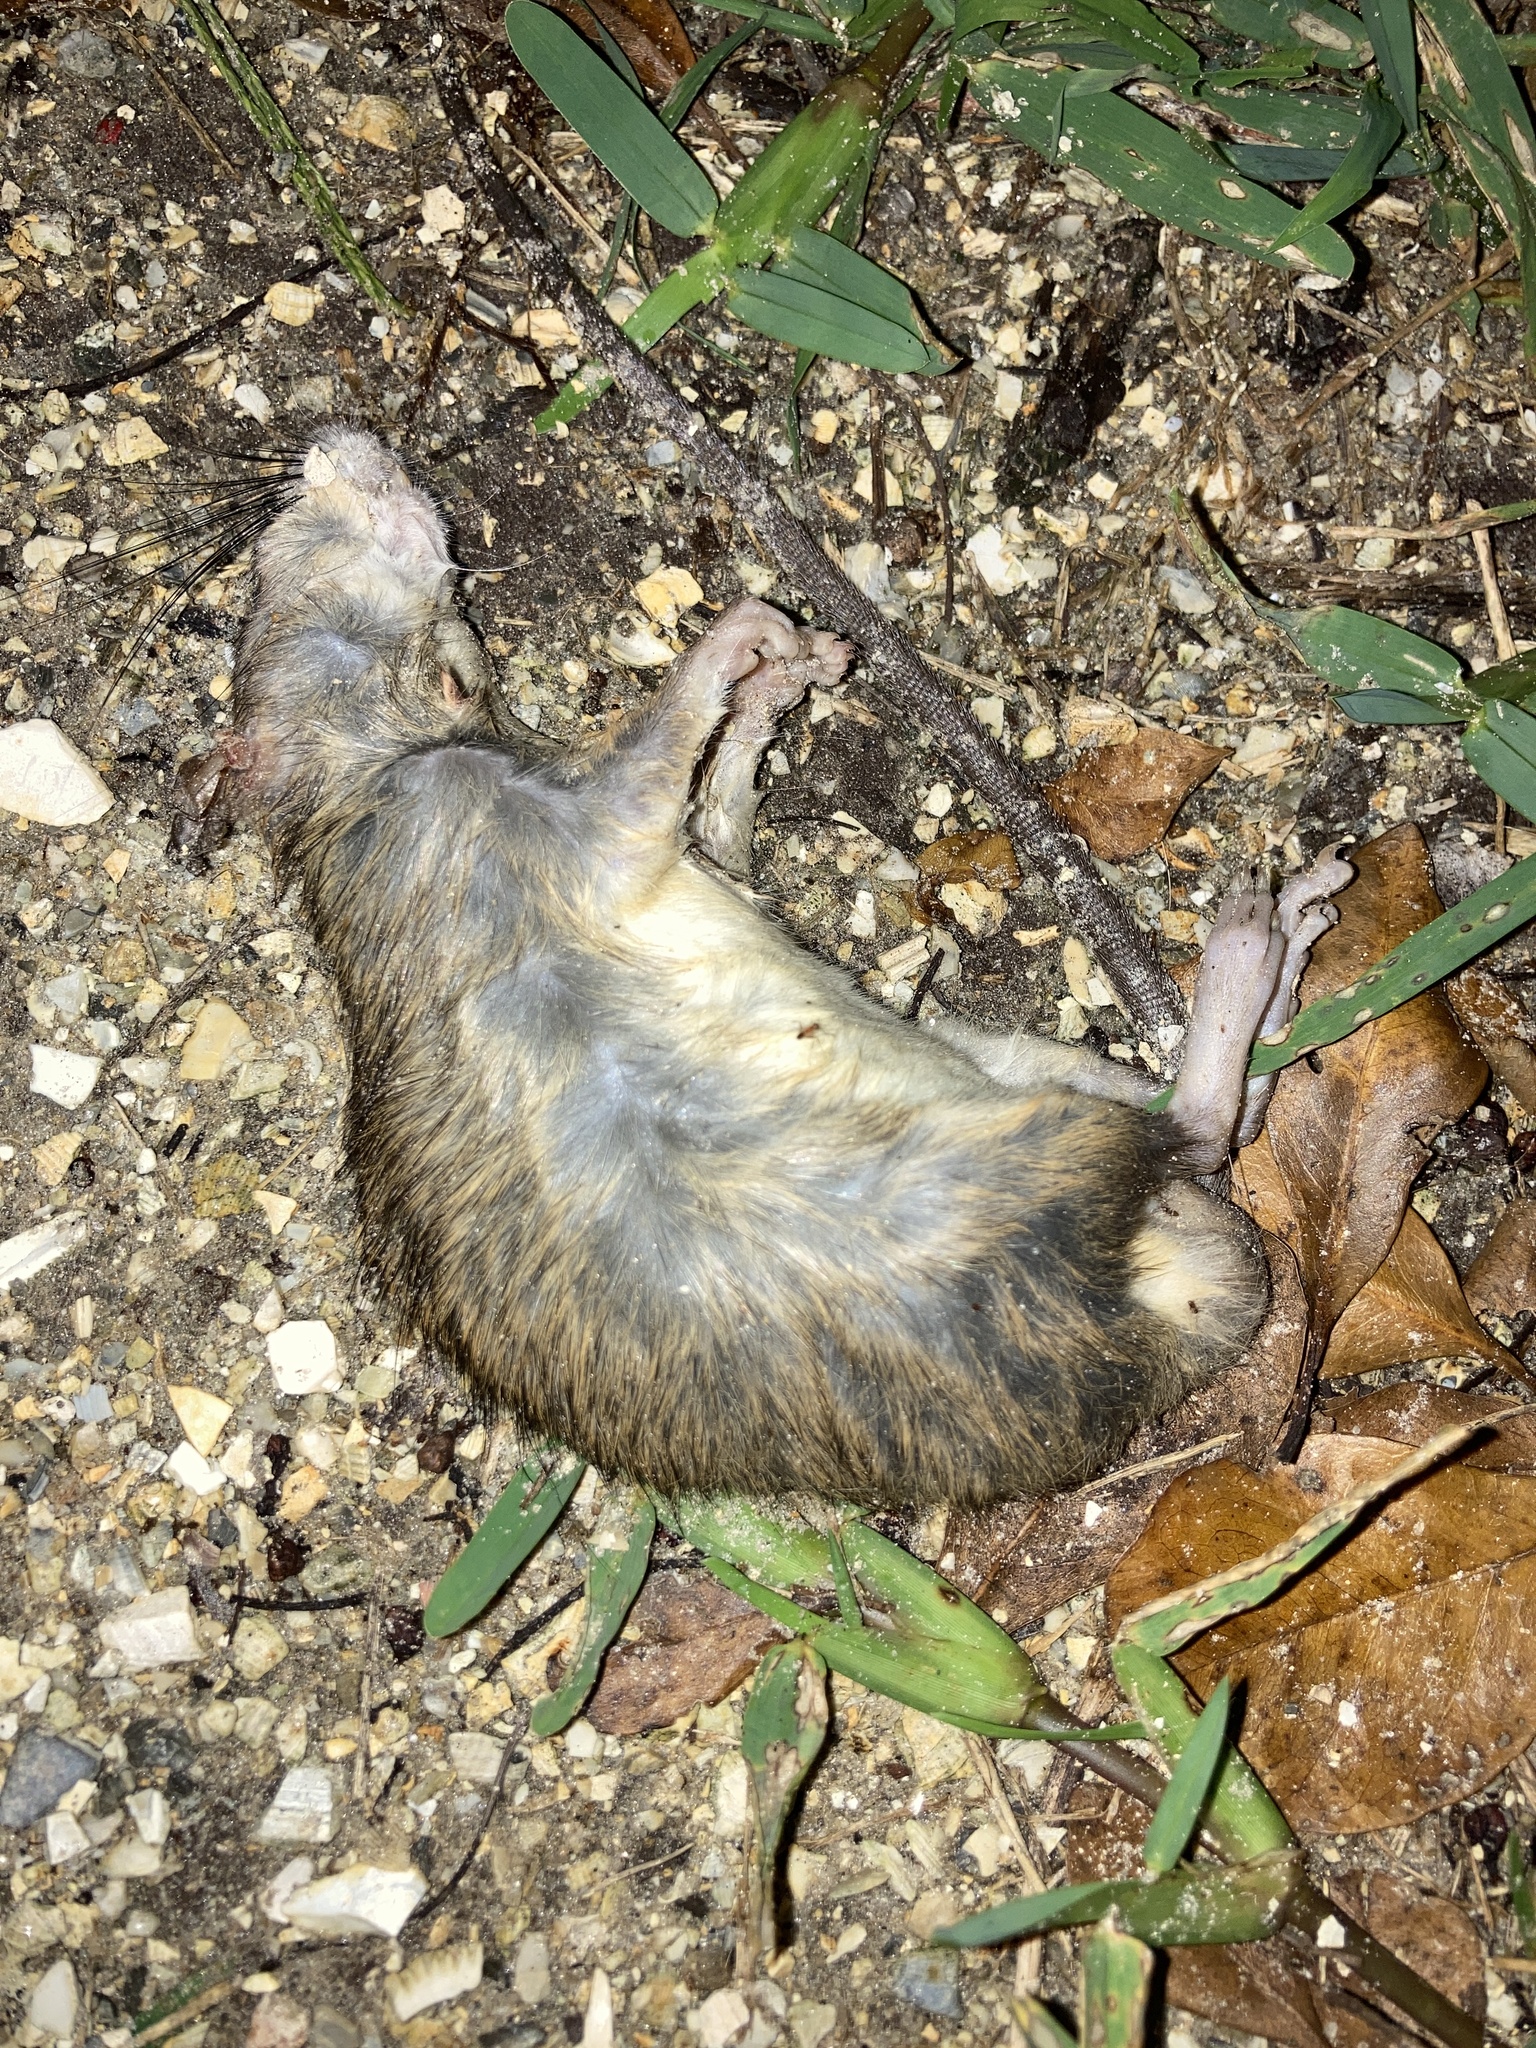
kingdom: Animalia
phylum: Chordata
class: Mammalia
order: Rodentia
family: Muridae
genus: Rattus
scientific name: Rattus rattus
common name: Black rat
